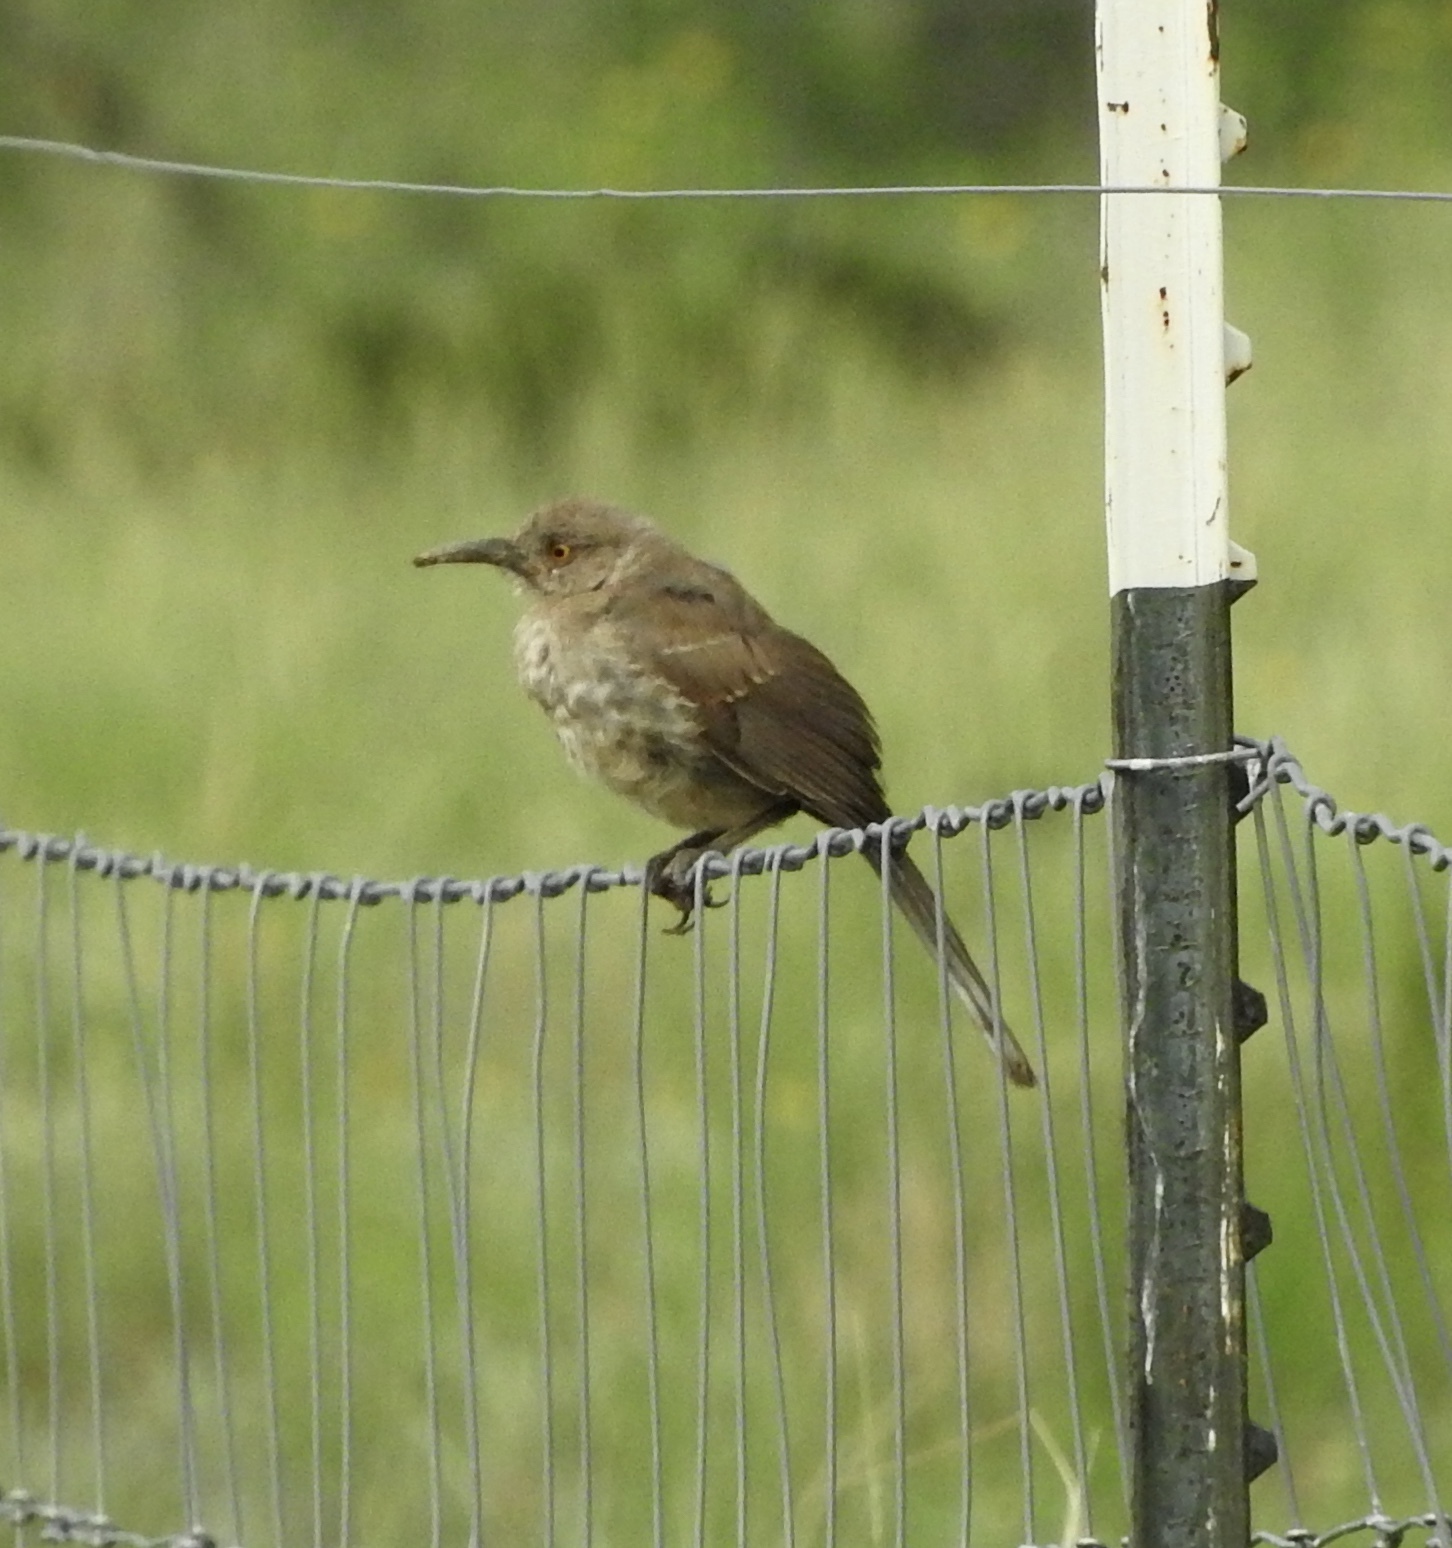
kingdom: Animalia
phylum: Chordata
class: Aves
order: Passeriformes
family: Mimidae
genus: Toxostoma
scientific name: Toxostoma curvirostre
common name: Curve-billed thrasher
